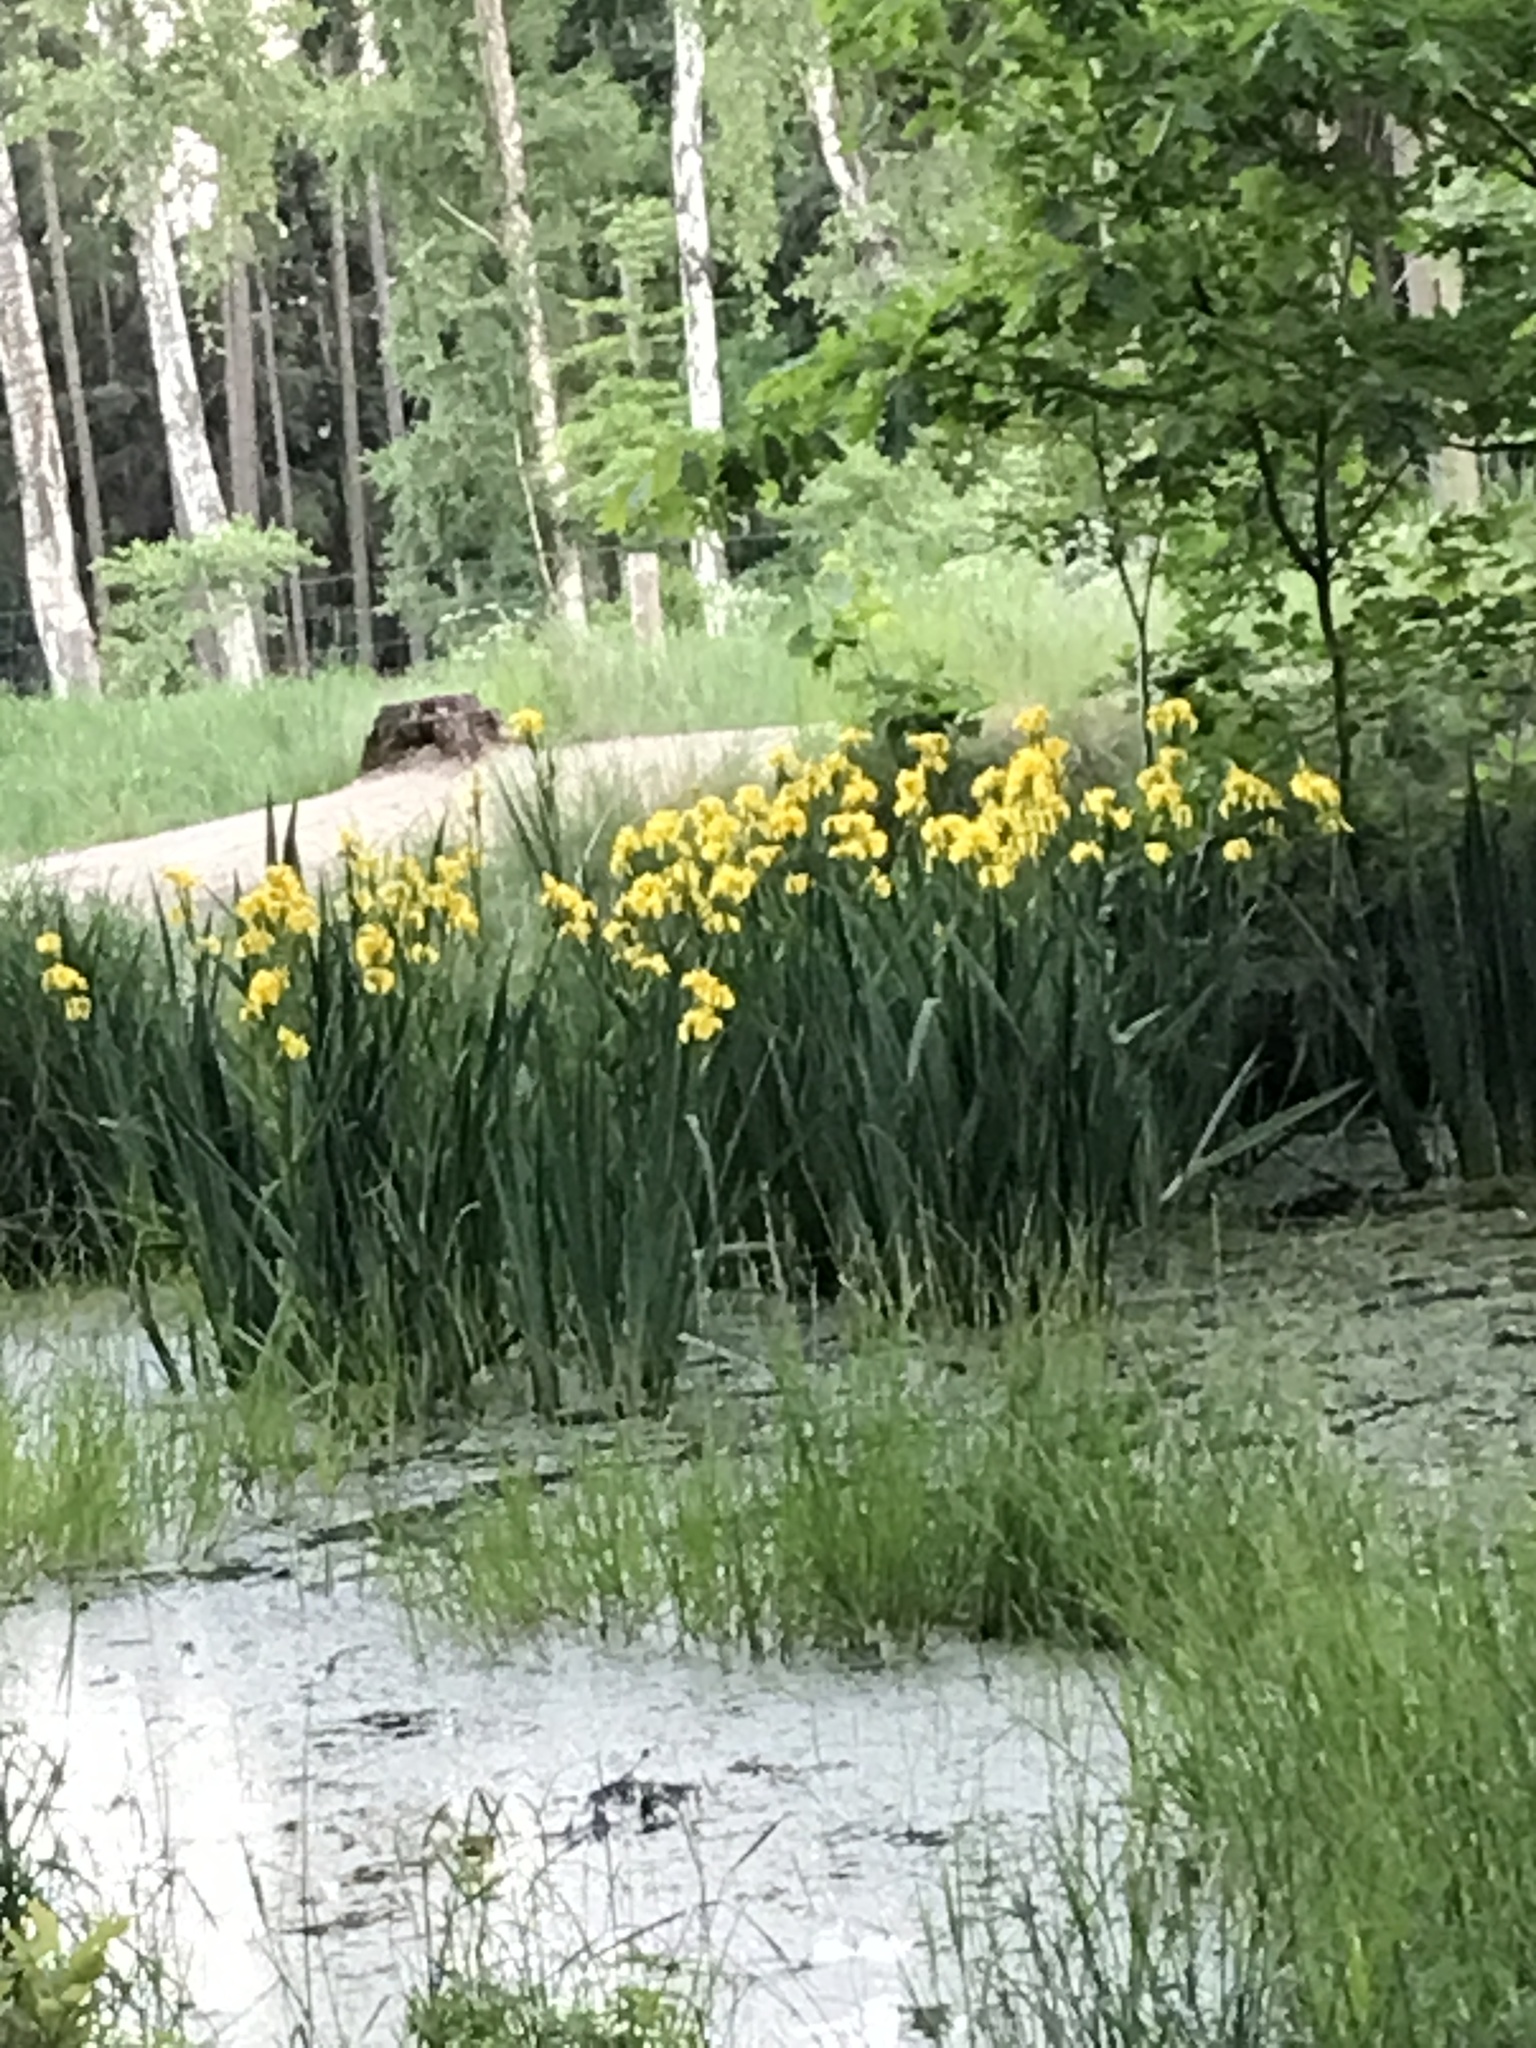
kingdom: Plantae
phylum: Tracheophyta
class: Liliopsida
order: Asparagales
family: Iridaceae
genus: Iris
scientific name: Iris pseudacorus
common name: Yellow flag
